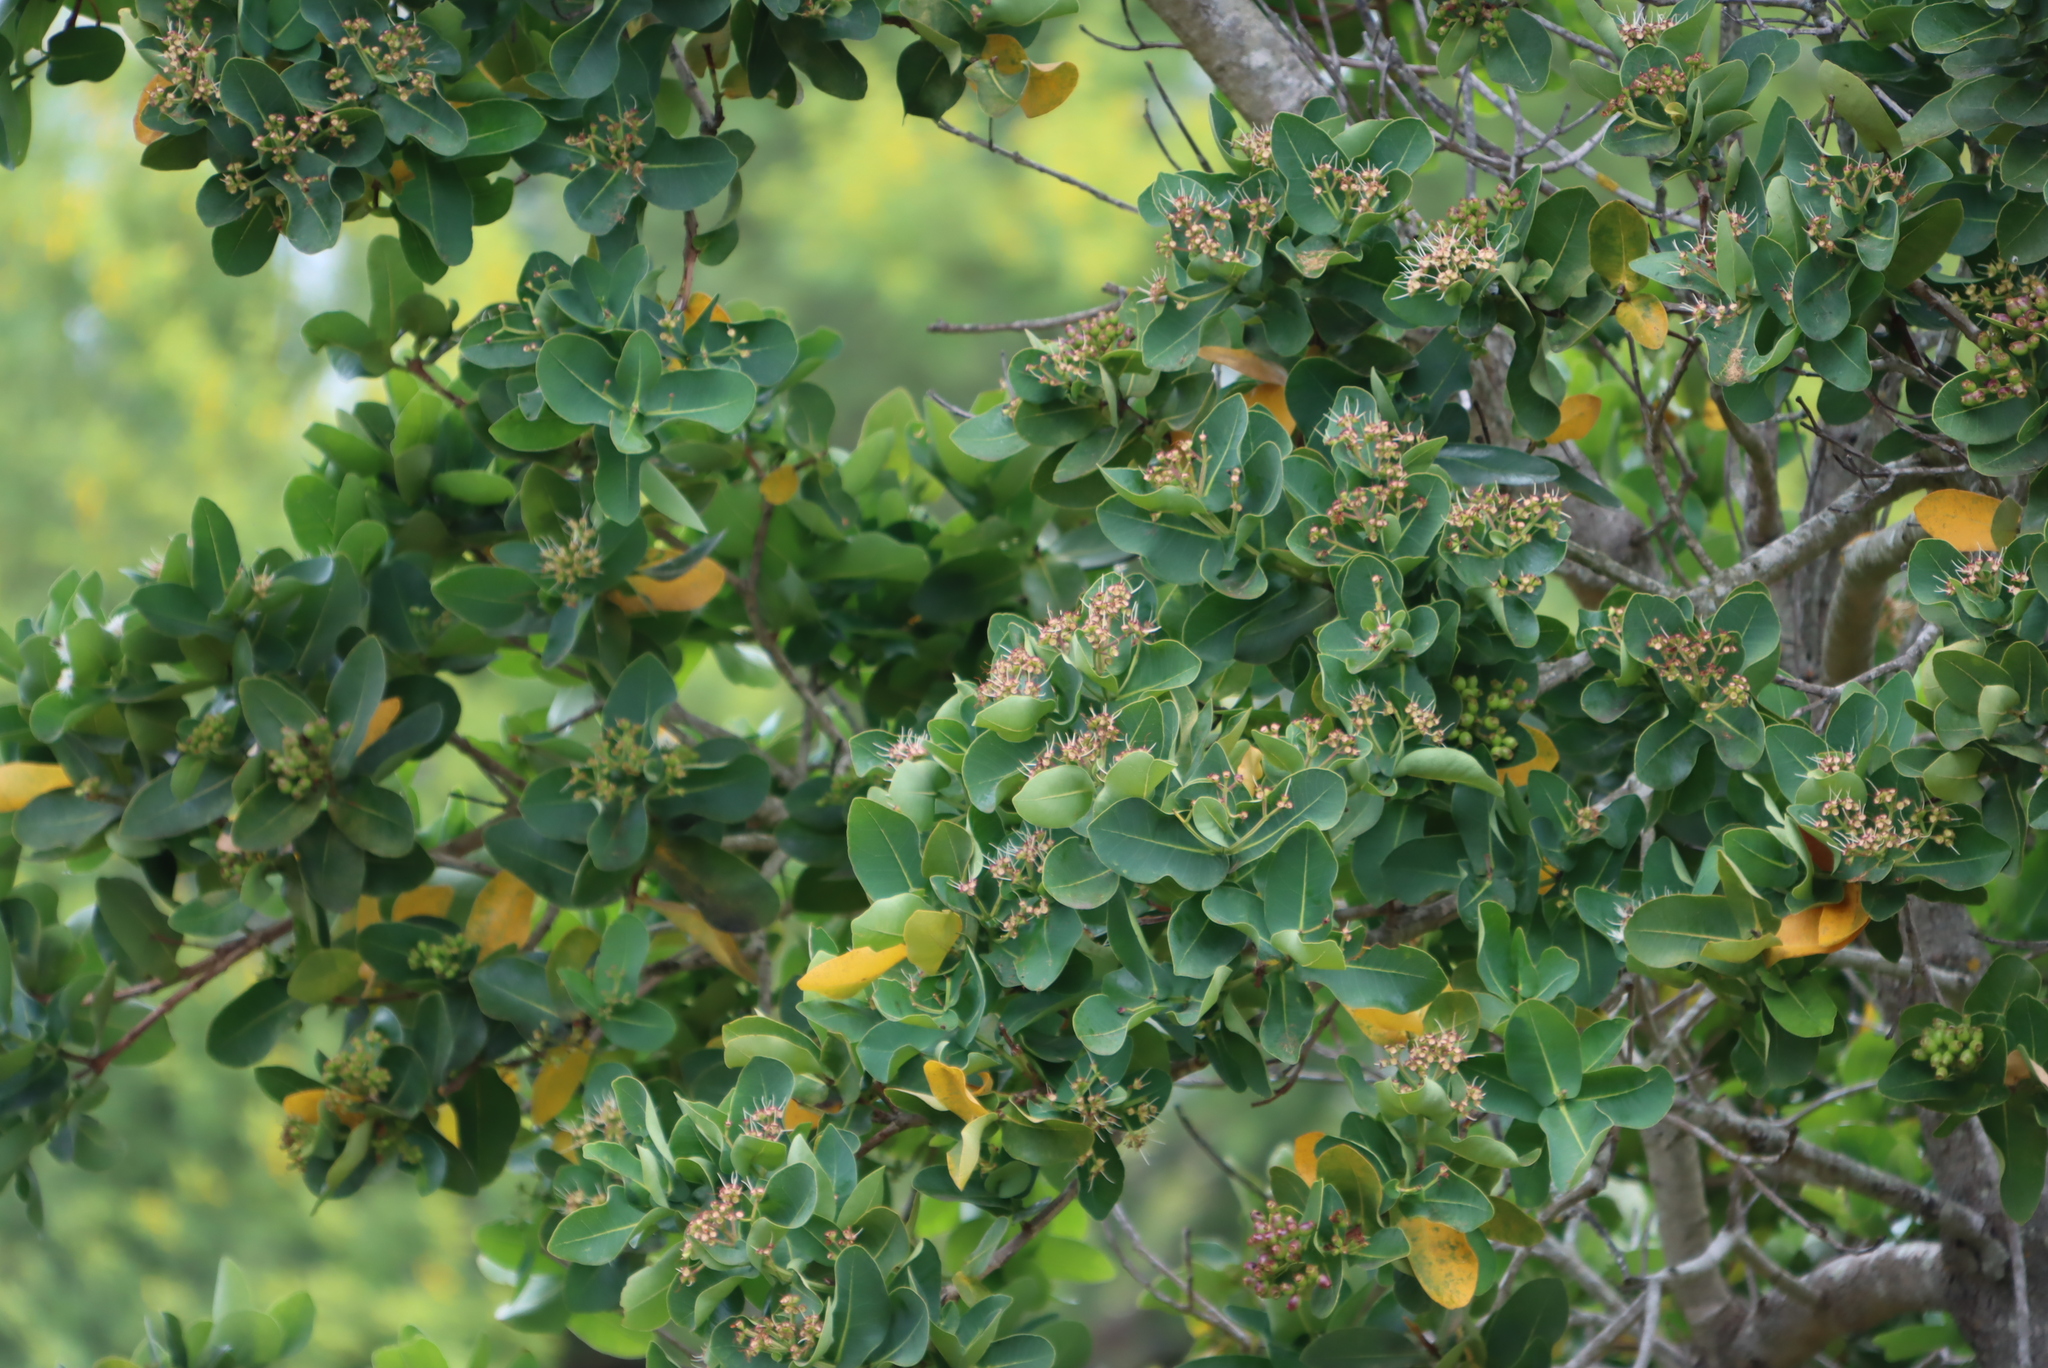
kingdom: Plantae
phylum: Tracheophyta
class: Magnoliopsida
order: Myrtales
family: Myrtaceae
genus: Syzygium
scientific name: Syzygium cordatum
